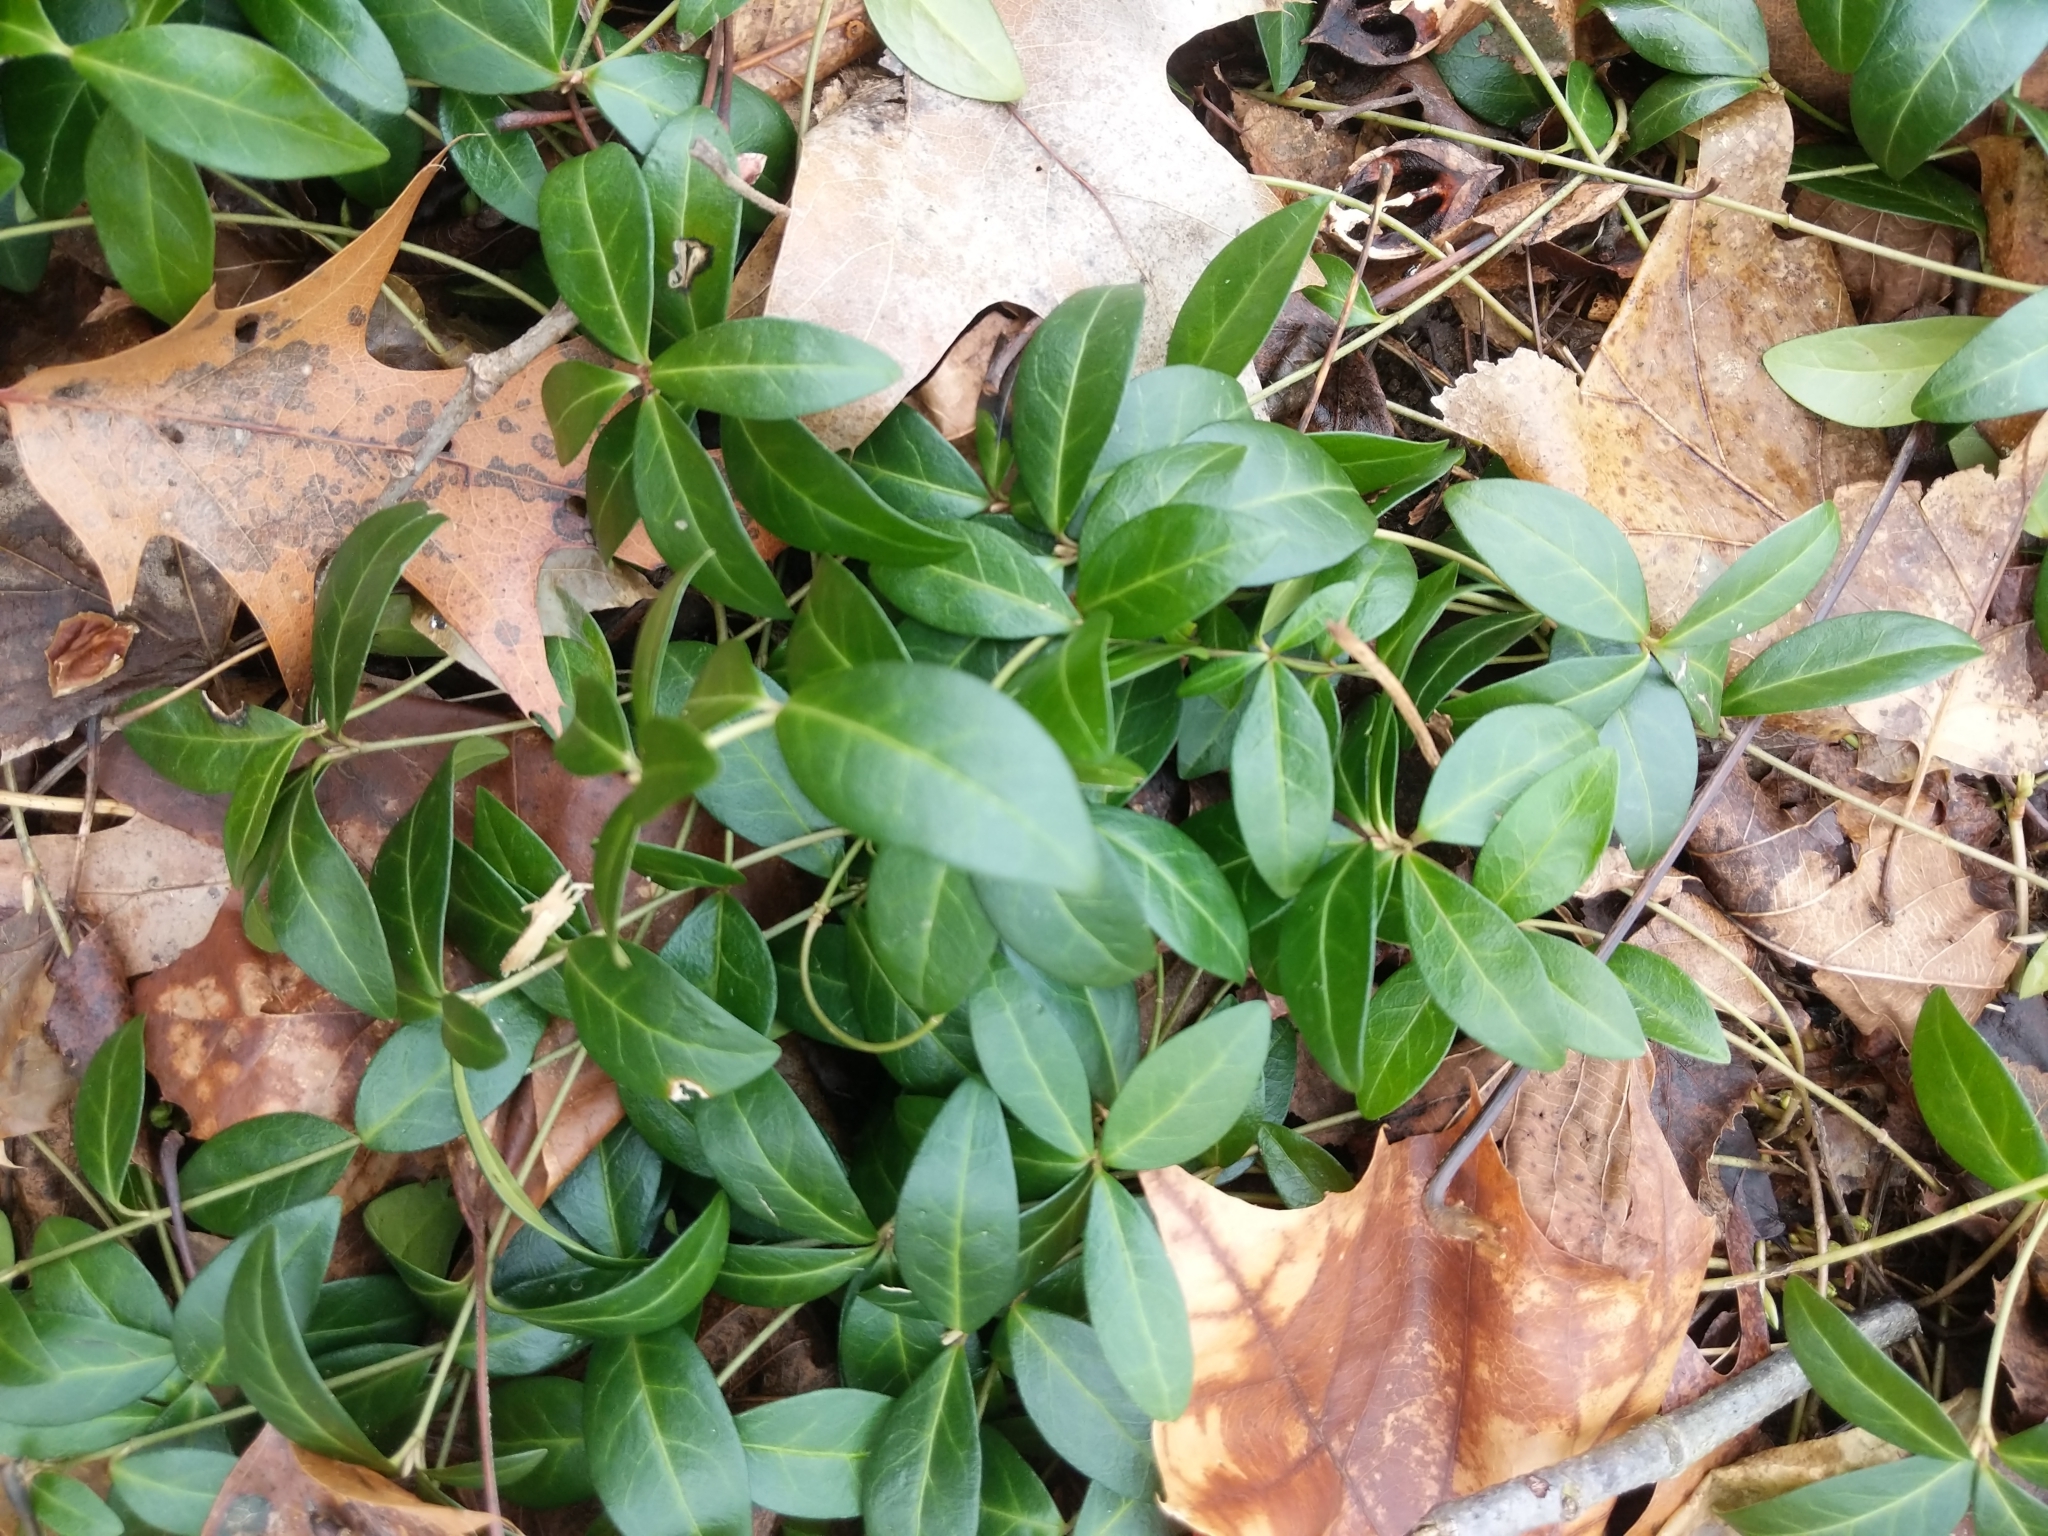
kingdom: Plantae
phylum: Tracheophyta
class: Magnoliopsida
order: Gentianales
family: Apocynaceae
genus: Vinca
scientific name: Vinca minor
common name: Lesser periwinkle
